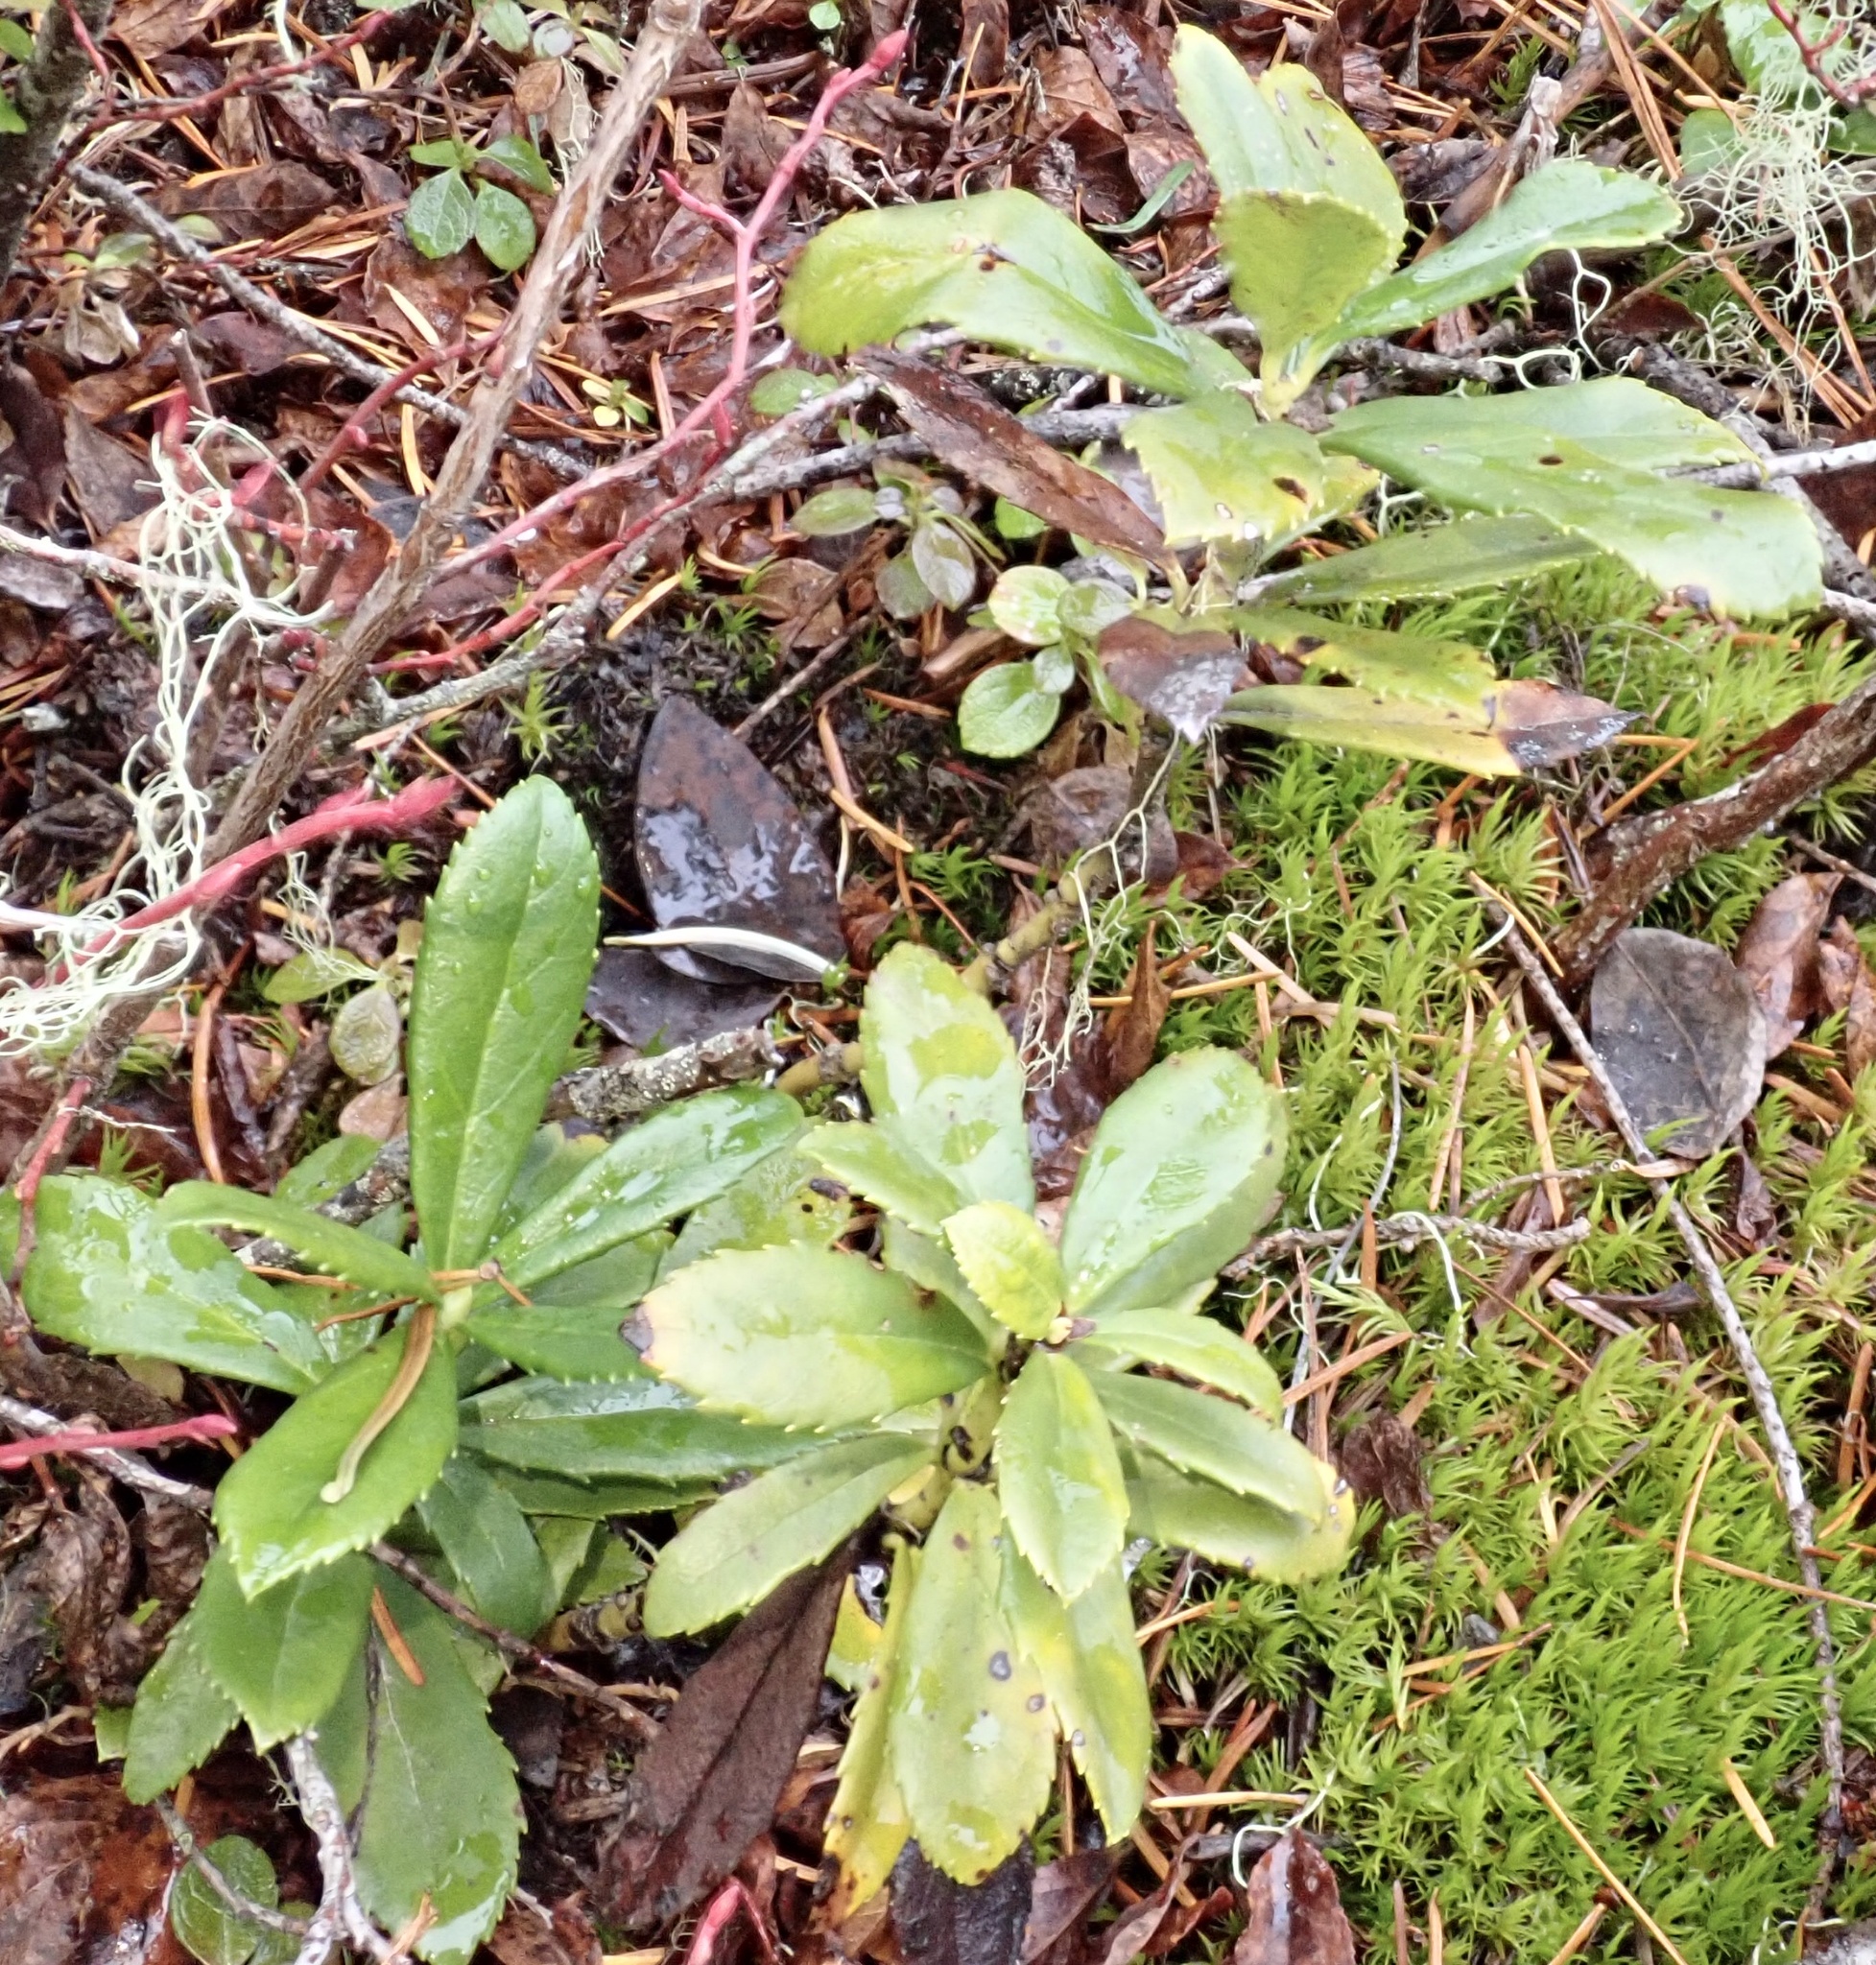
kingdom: Plantae
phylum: Tracheophyta
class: Magnoliopsida
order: Ericales
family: Ericaceae
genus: Chimaphila
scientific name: Chimaphila umbellata
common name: Pipsissewa
